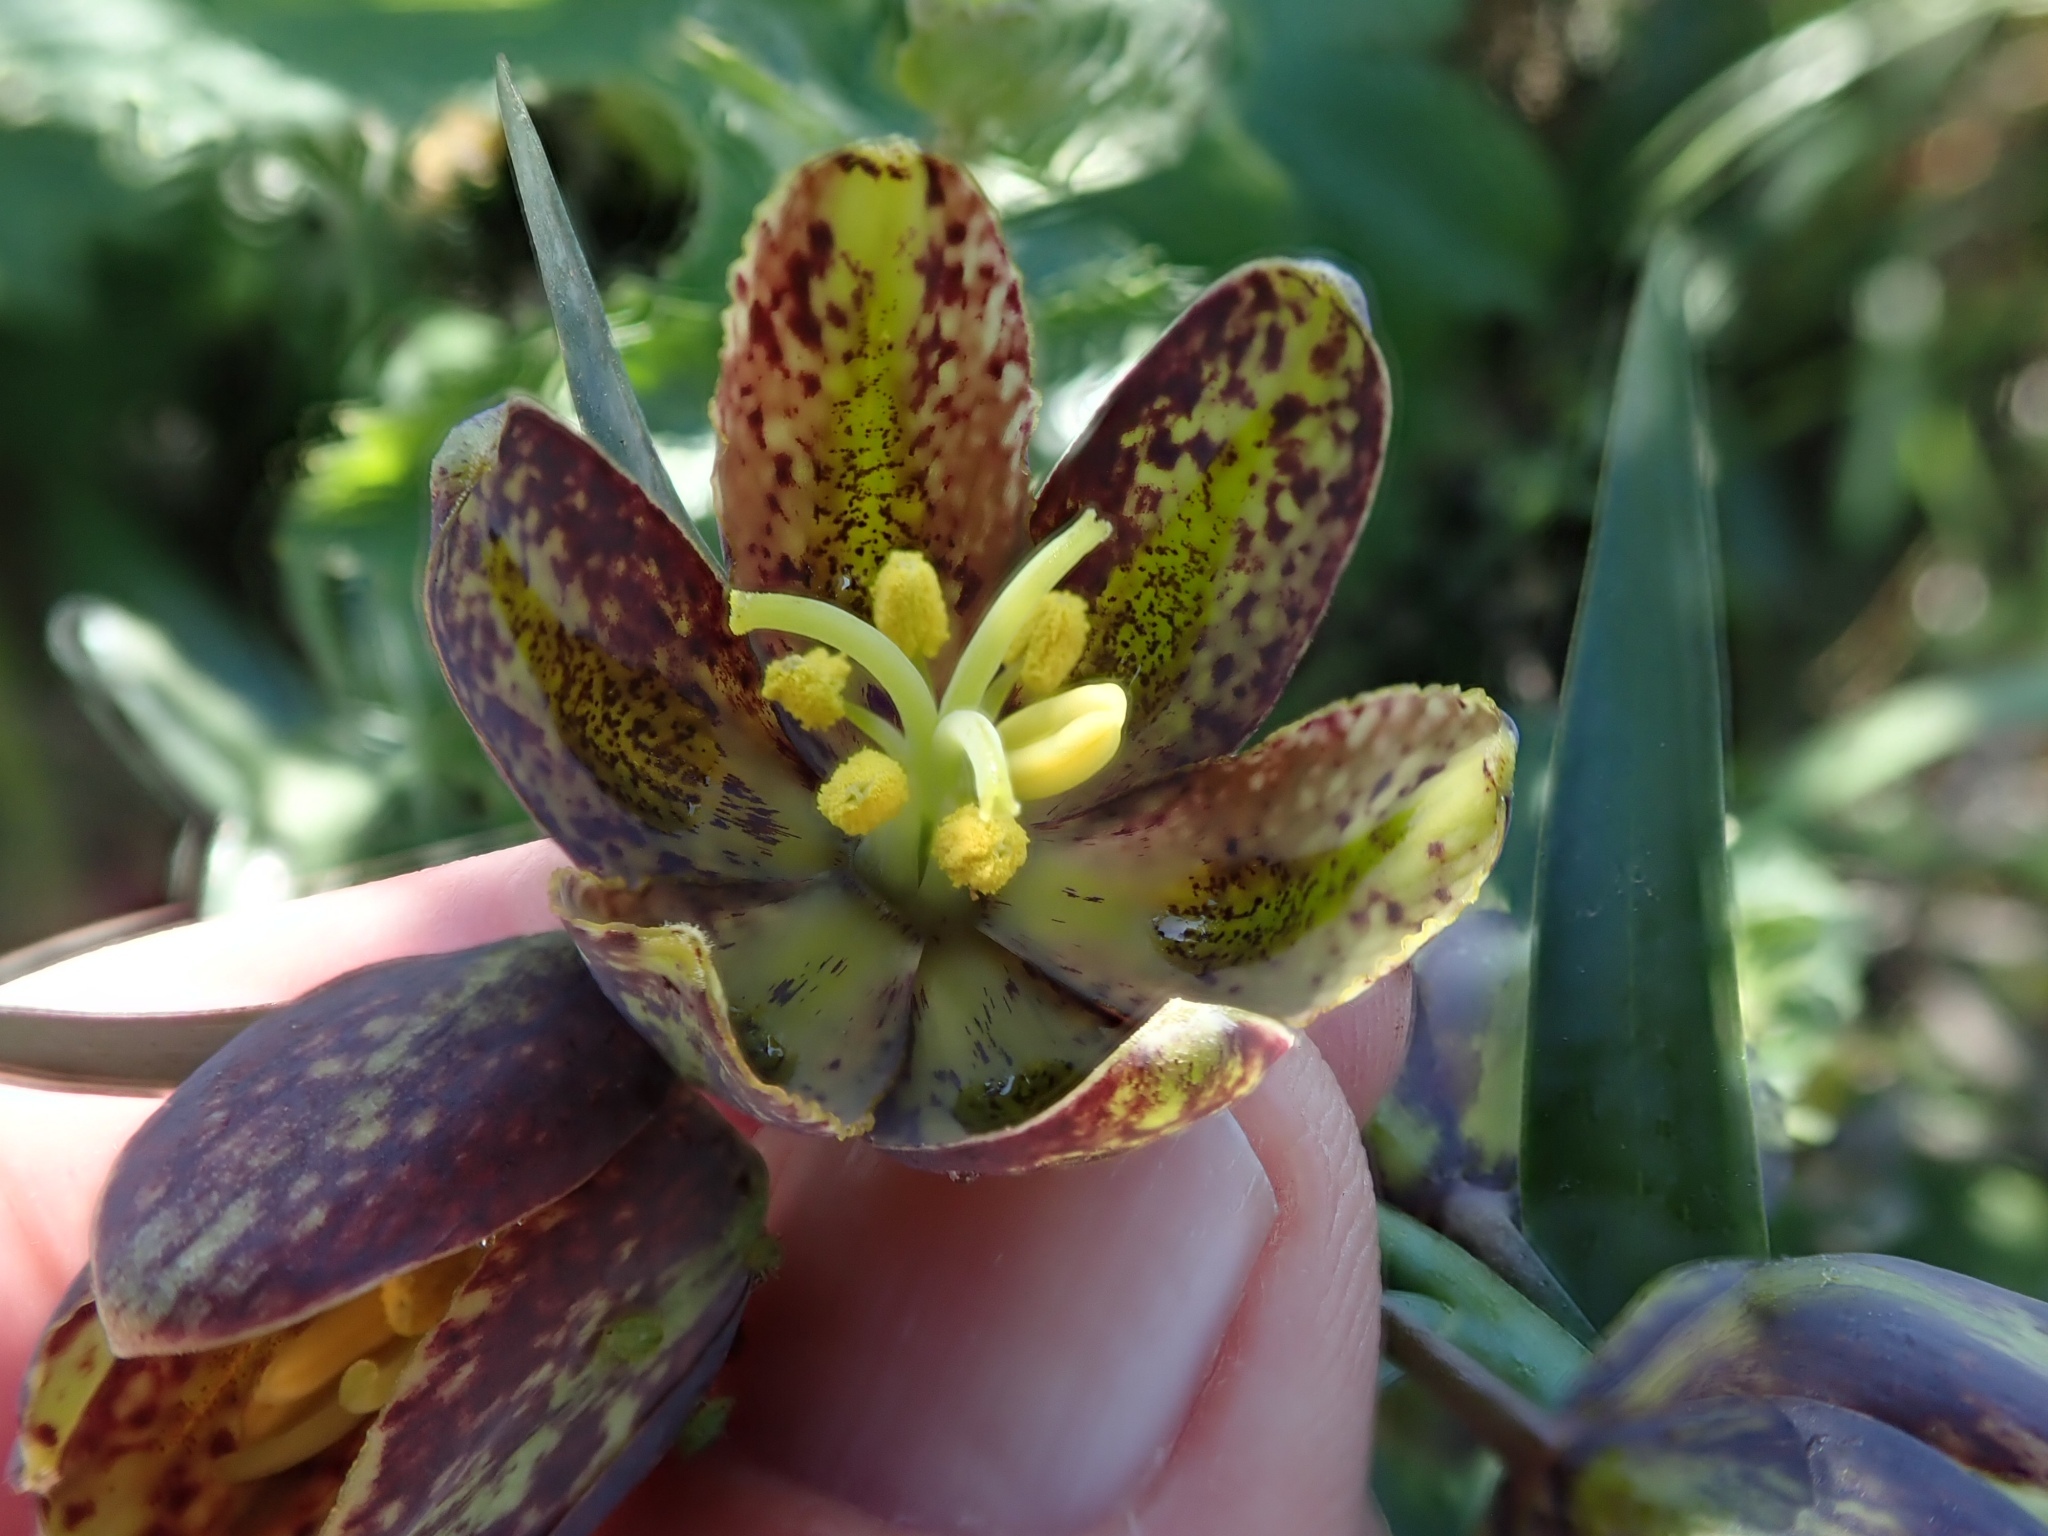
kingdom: Plantae
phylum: Tracheophyta
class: Liliopsida
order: Liliales
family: Liliaceae
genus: Fritillaria
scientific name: Fritillaria affinis
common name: Ojai fritillary
